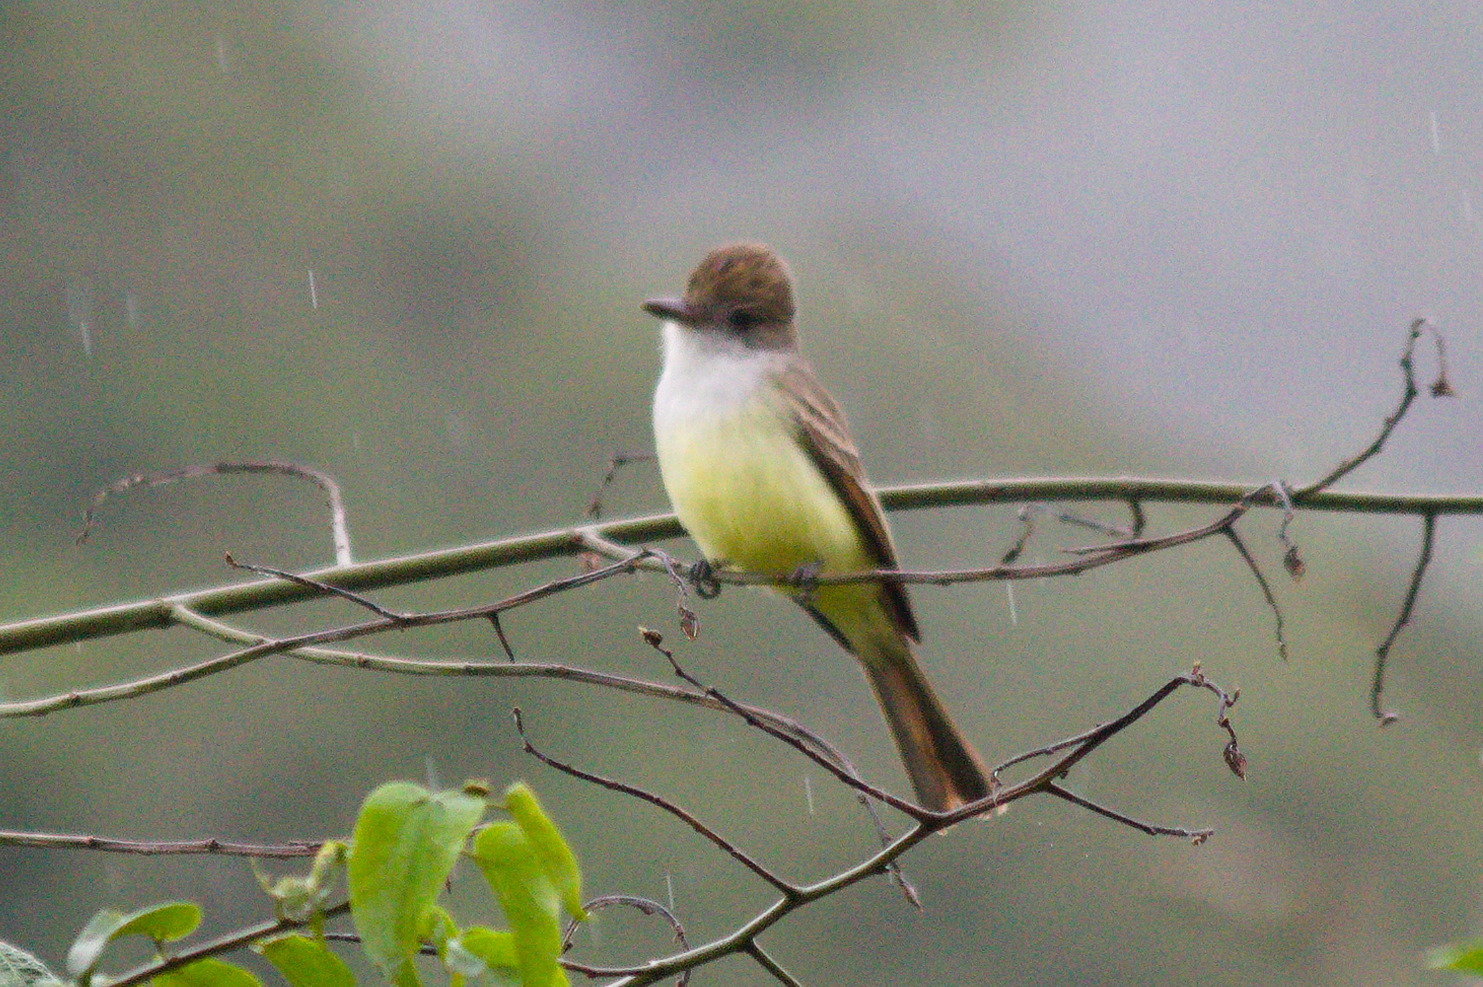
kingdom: Animalia
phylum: Chordata
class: Aves
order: Passeriformes
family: Tyrannidae
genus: Myiarchus
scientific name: Myiarchus tyrannulus
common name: Brown-crested flycatcher
